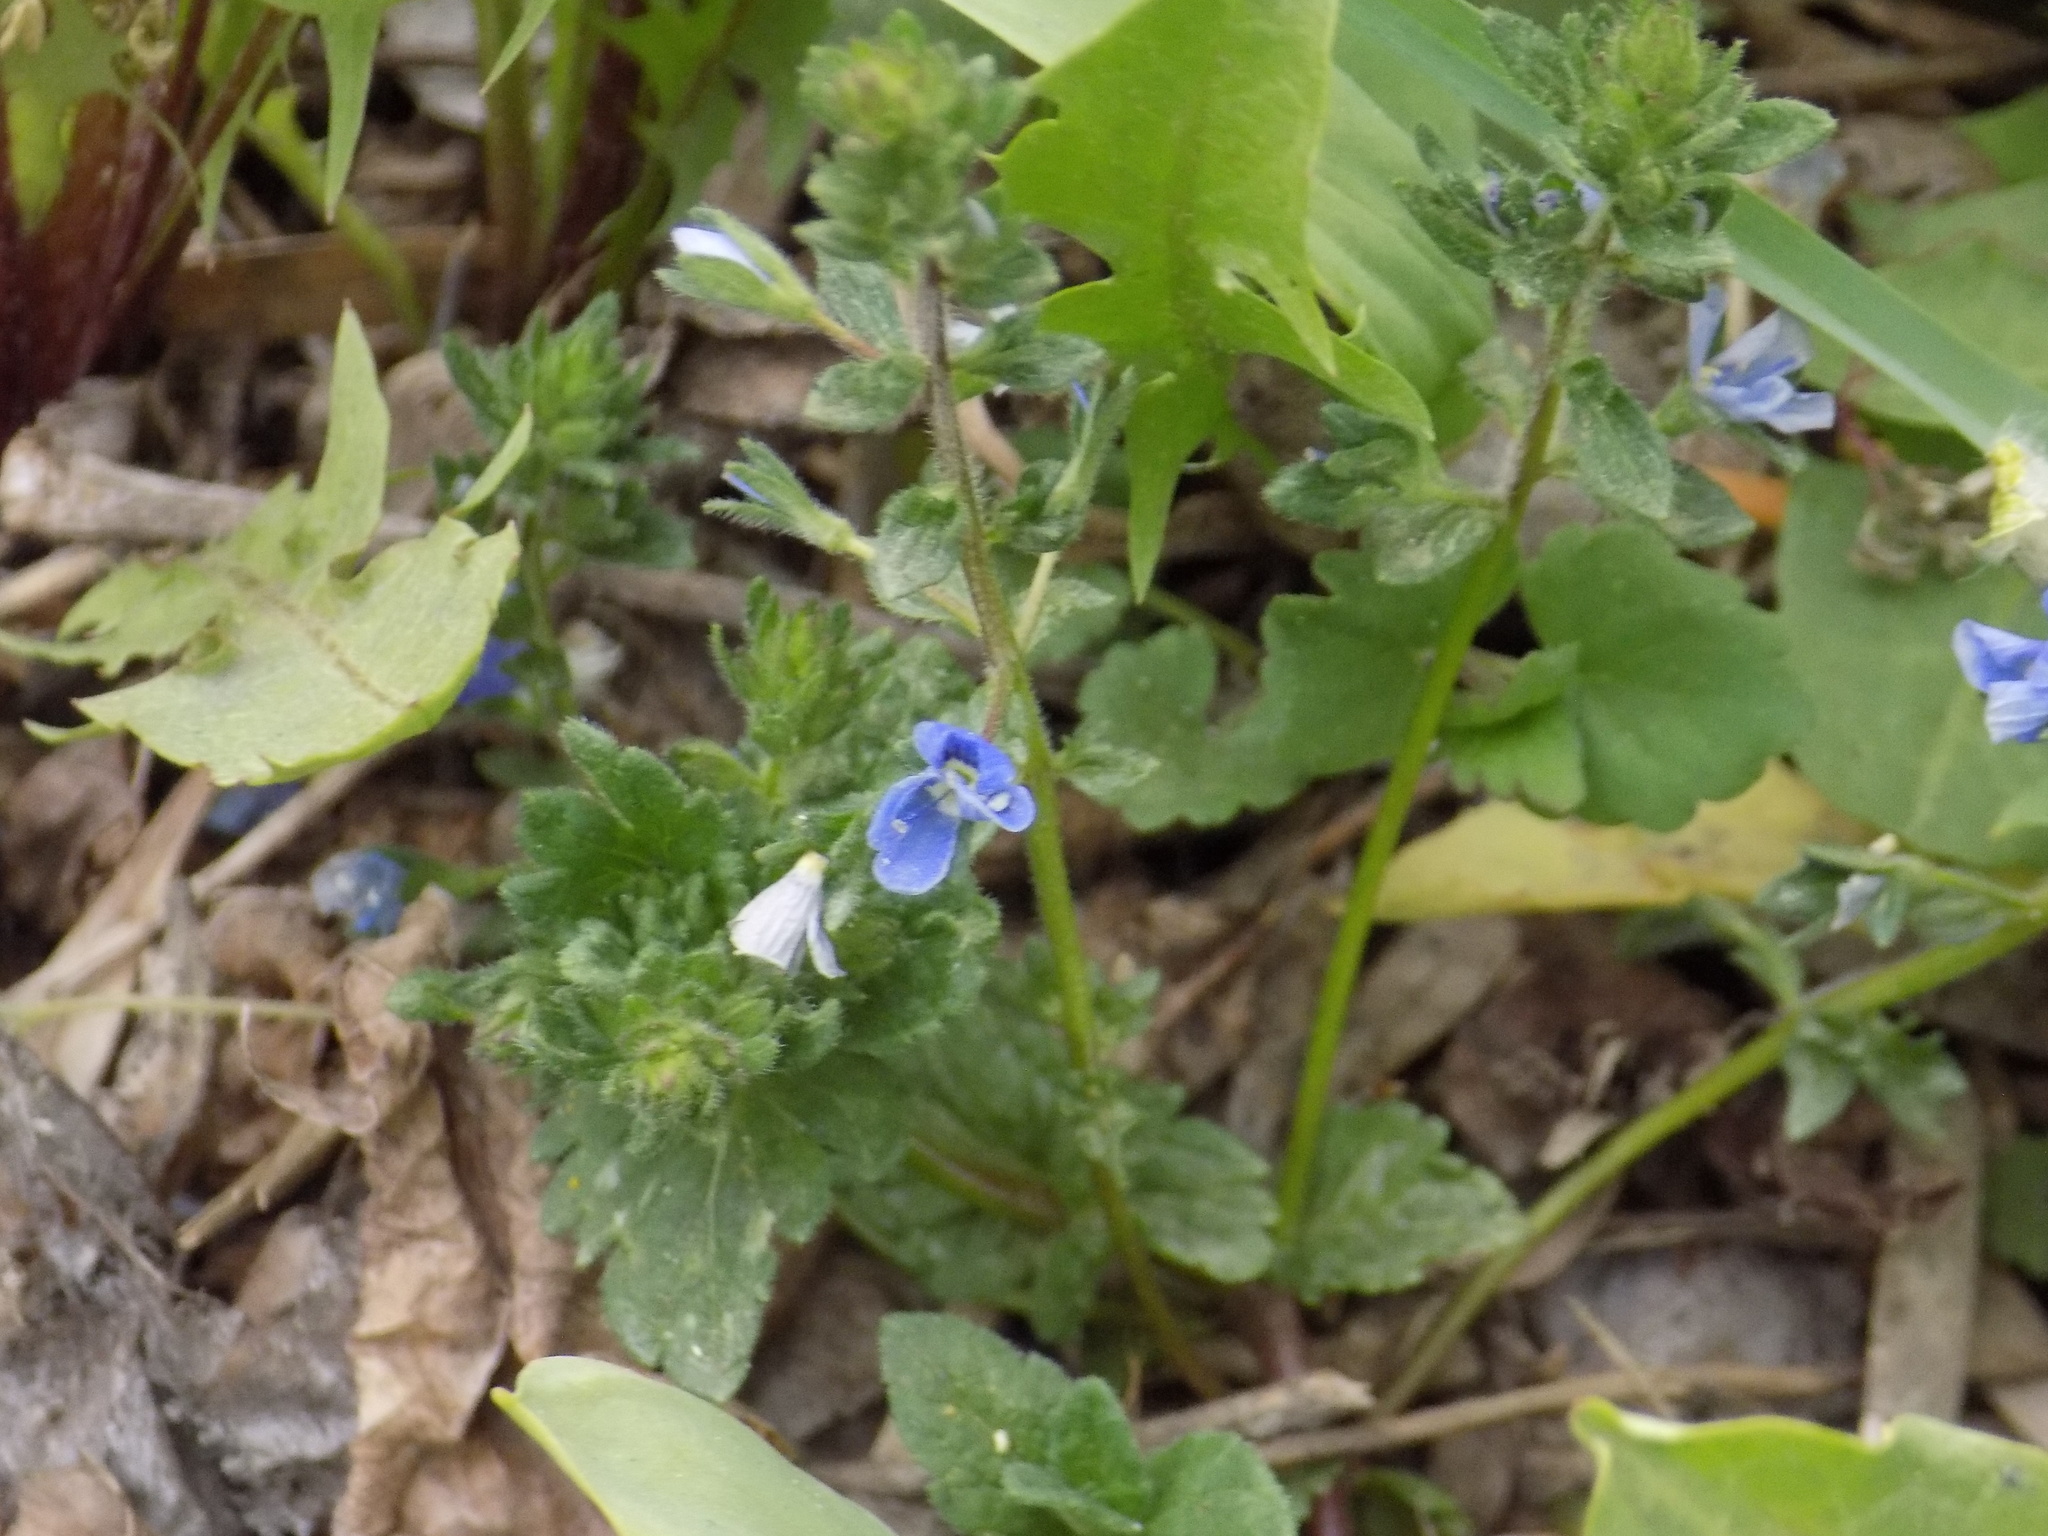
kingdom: Plantae
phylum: Tracheophyta
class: Magnoliopsida
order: Lamiales
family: Plantaginaceae
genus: Veronica
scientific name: Veronica chamaedrys
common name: Germander speedwell
